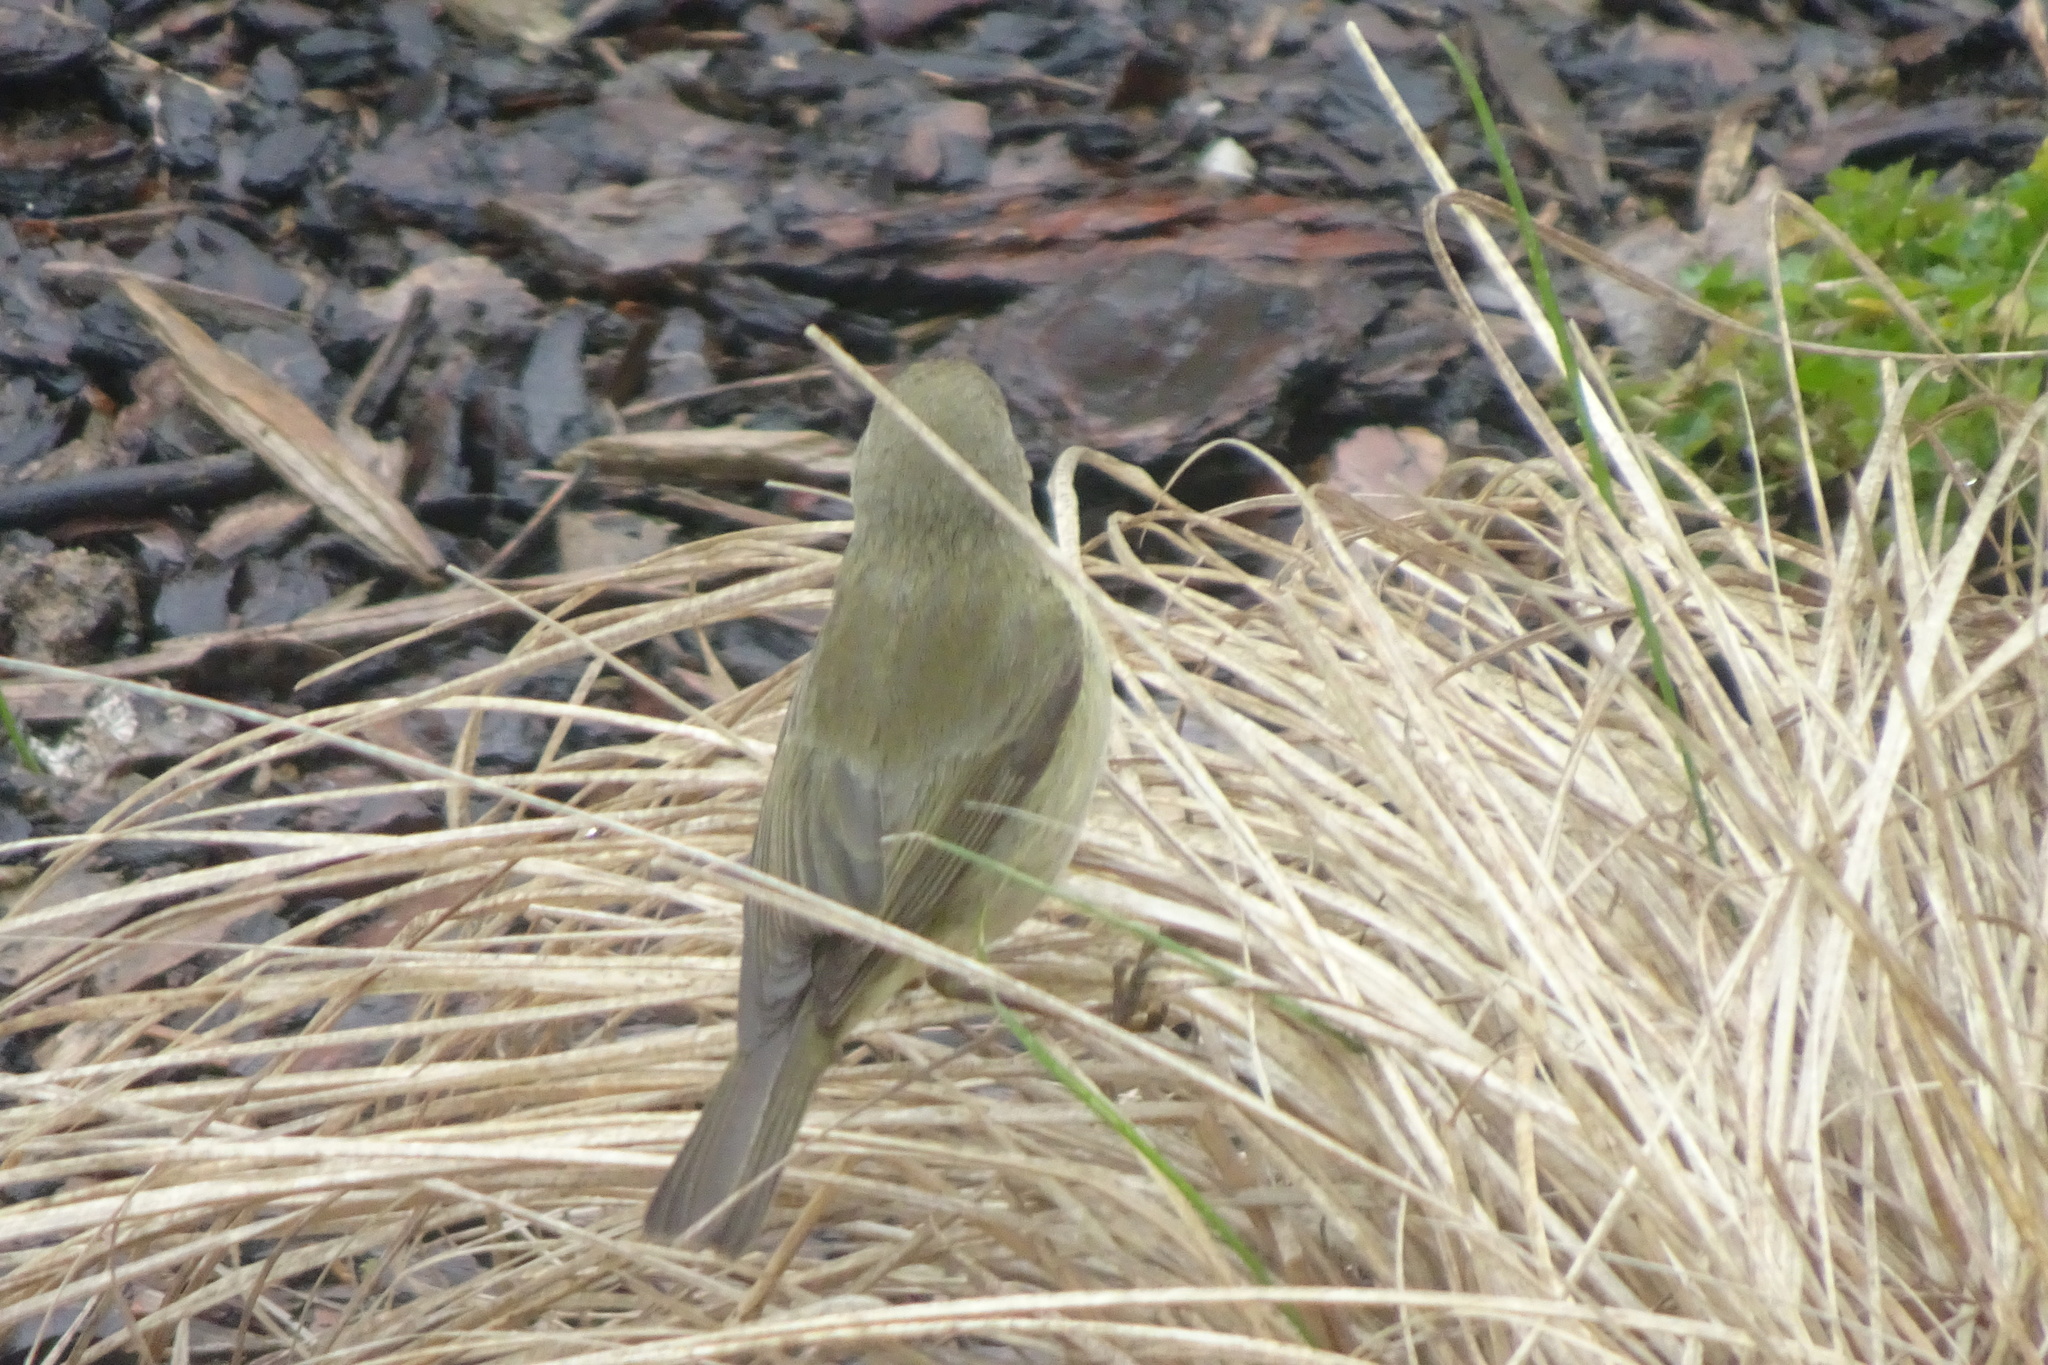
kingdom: Animalia
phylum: Chordata
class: Aves
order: Passeriformes
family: Phylloscopidae
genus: Phylloscopus
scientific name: Phylloscopus collybita
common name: Common chiffchaff
